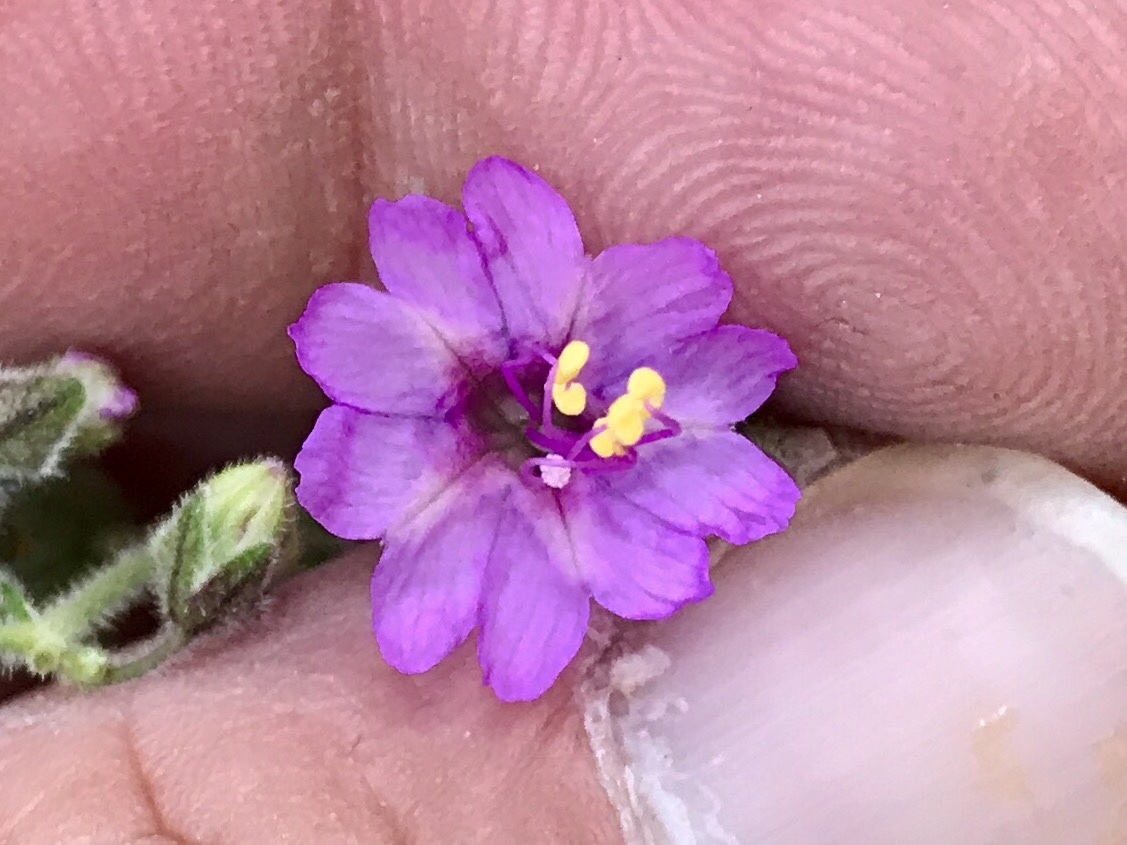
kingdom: Plantae
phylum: Tracheophyta
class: Magnoliopsida
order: Caryophyllales
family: Nyctaginaceae
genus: Allionia
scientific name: Allionia incarnata
